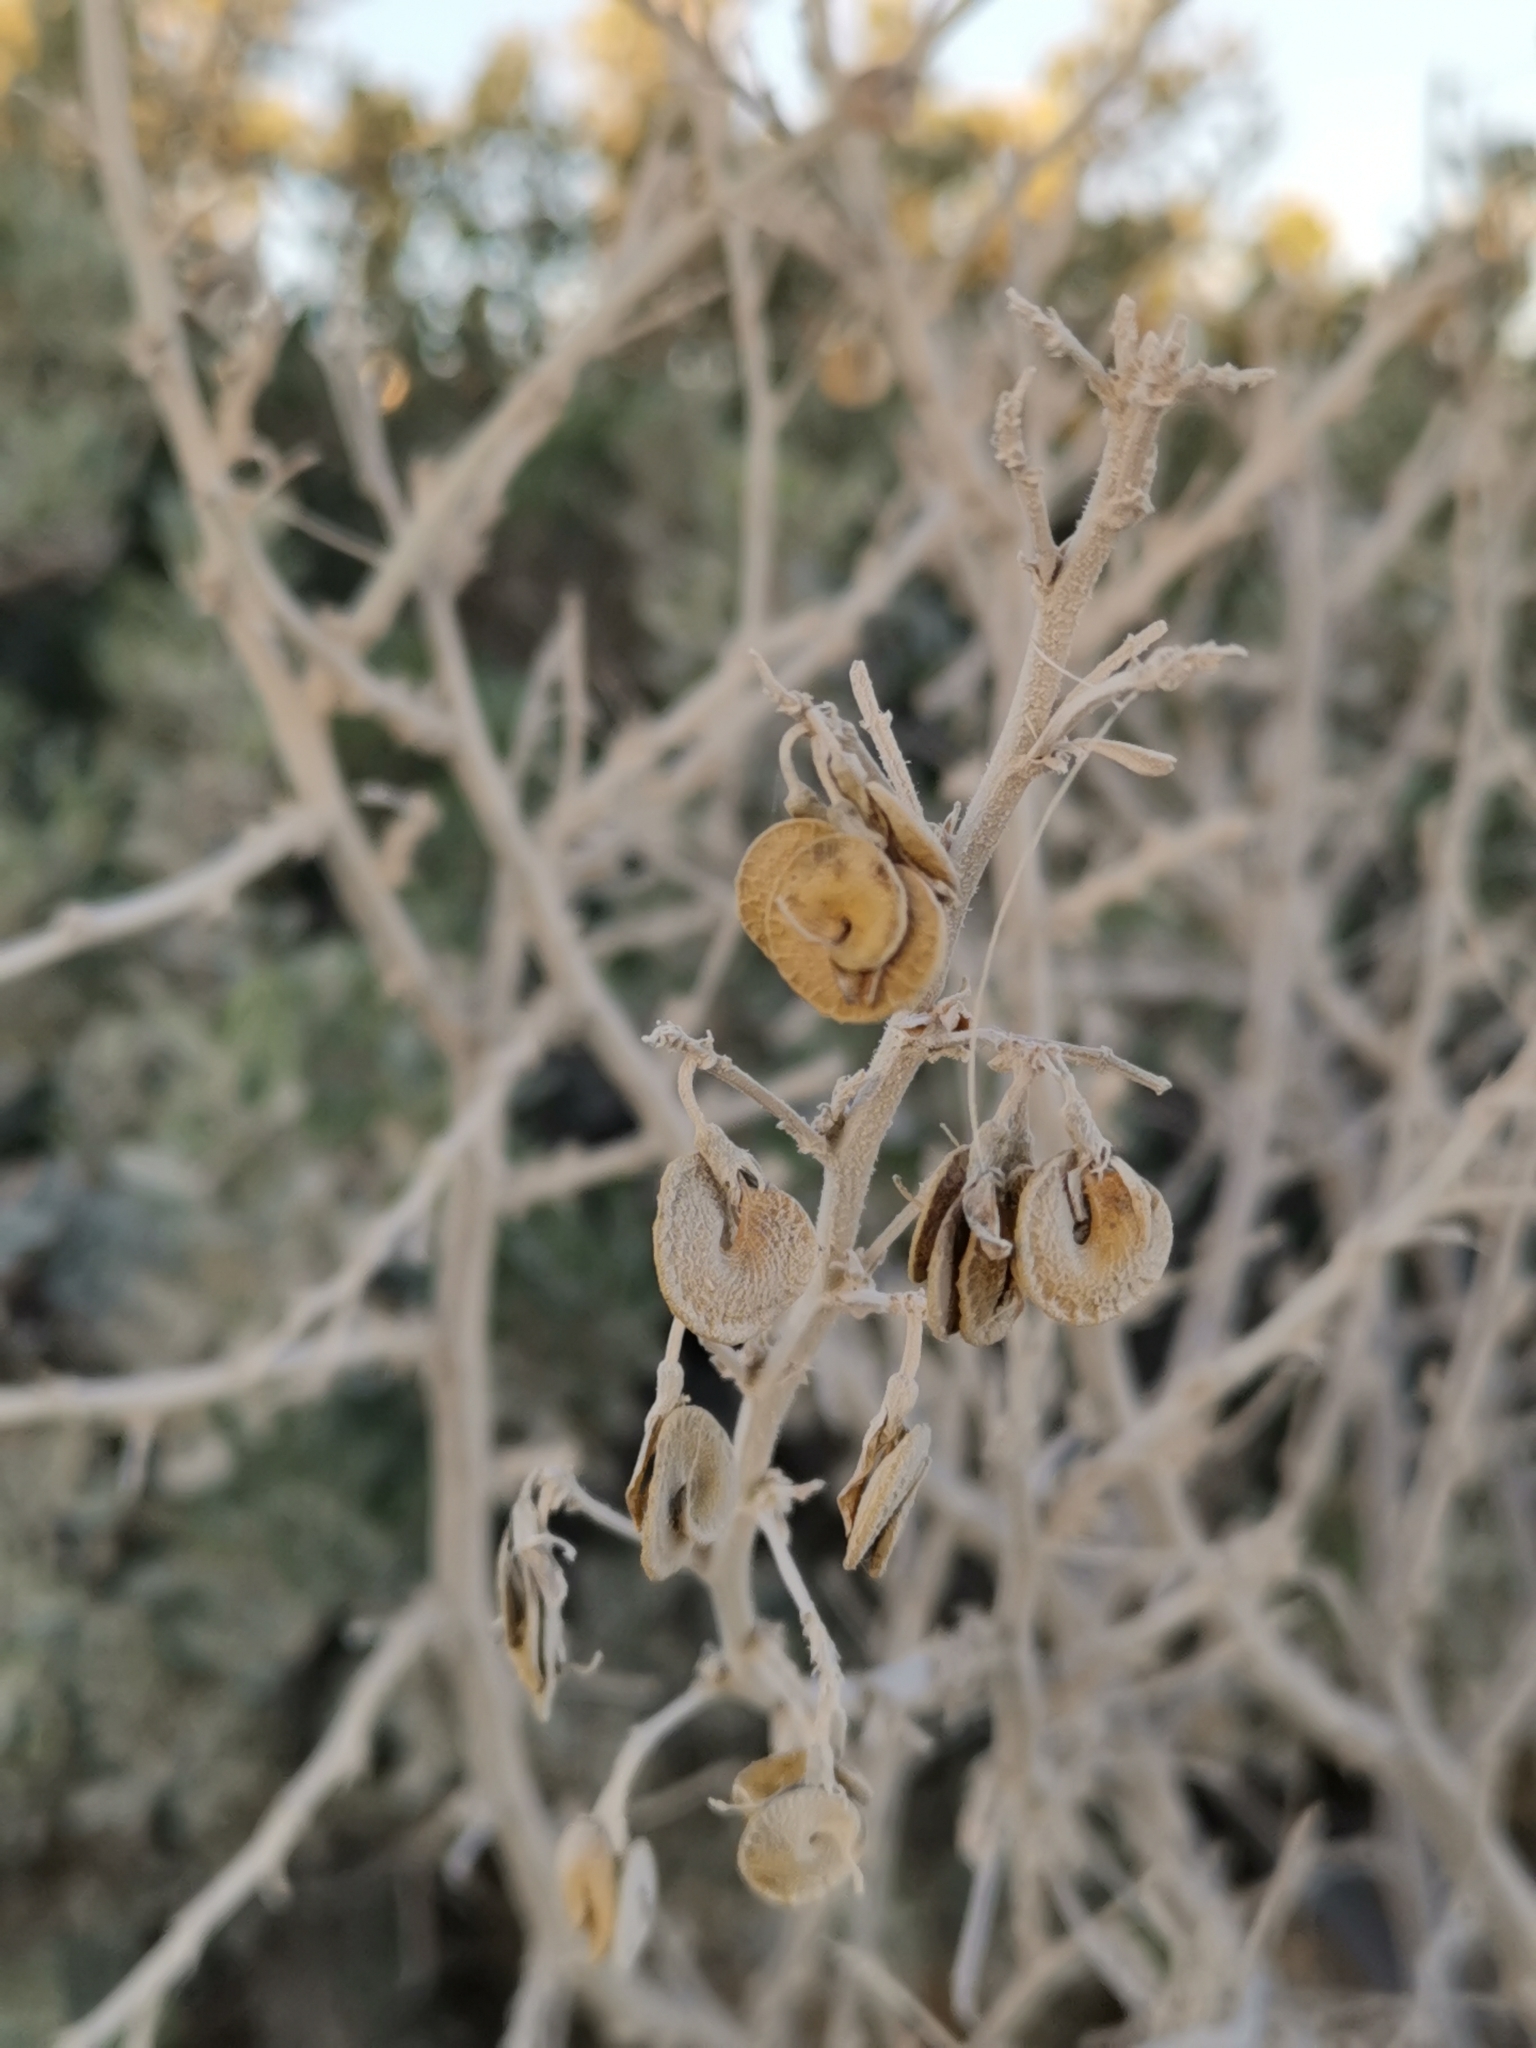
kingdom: Plantae
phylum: Tracheophyta
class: Magnoliopsida
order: Fabales
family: Fabaceae
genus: Medicago
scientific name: Medicago arborea
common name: Moon trefoil
